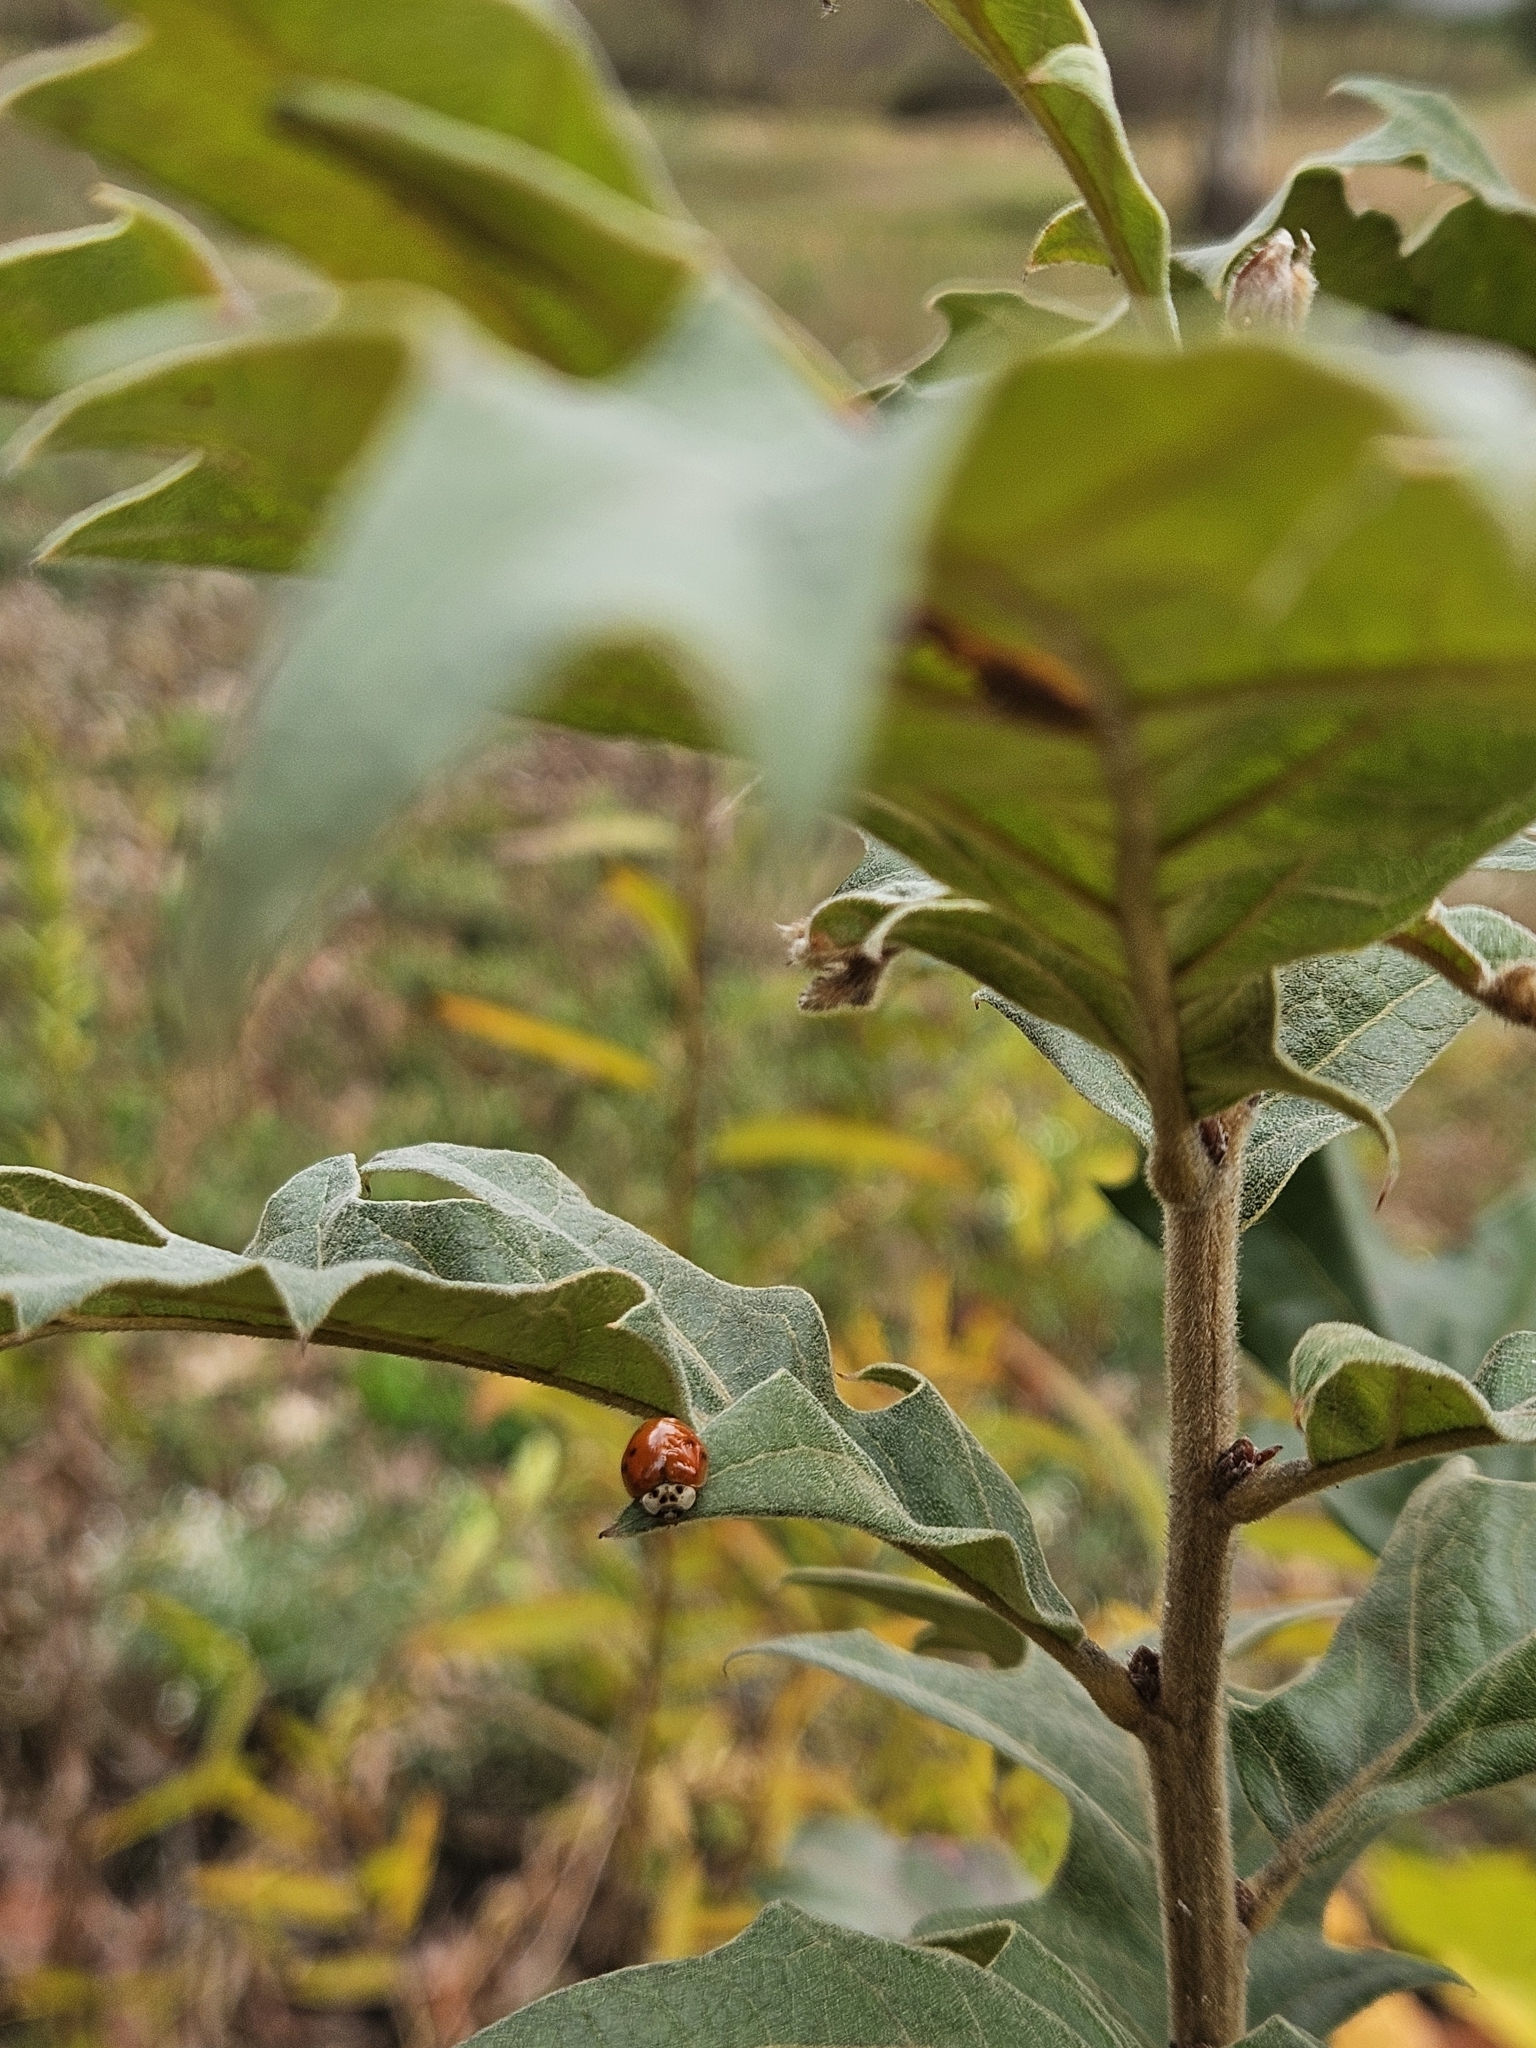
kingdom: Animalia
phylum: Arthropoda
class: Insecta
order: Coleoptera
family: Coccinellidae
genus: Harmonia
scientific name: Harmonia axyridis
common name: Harlequin ladybird
